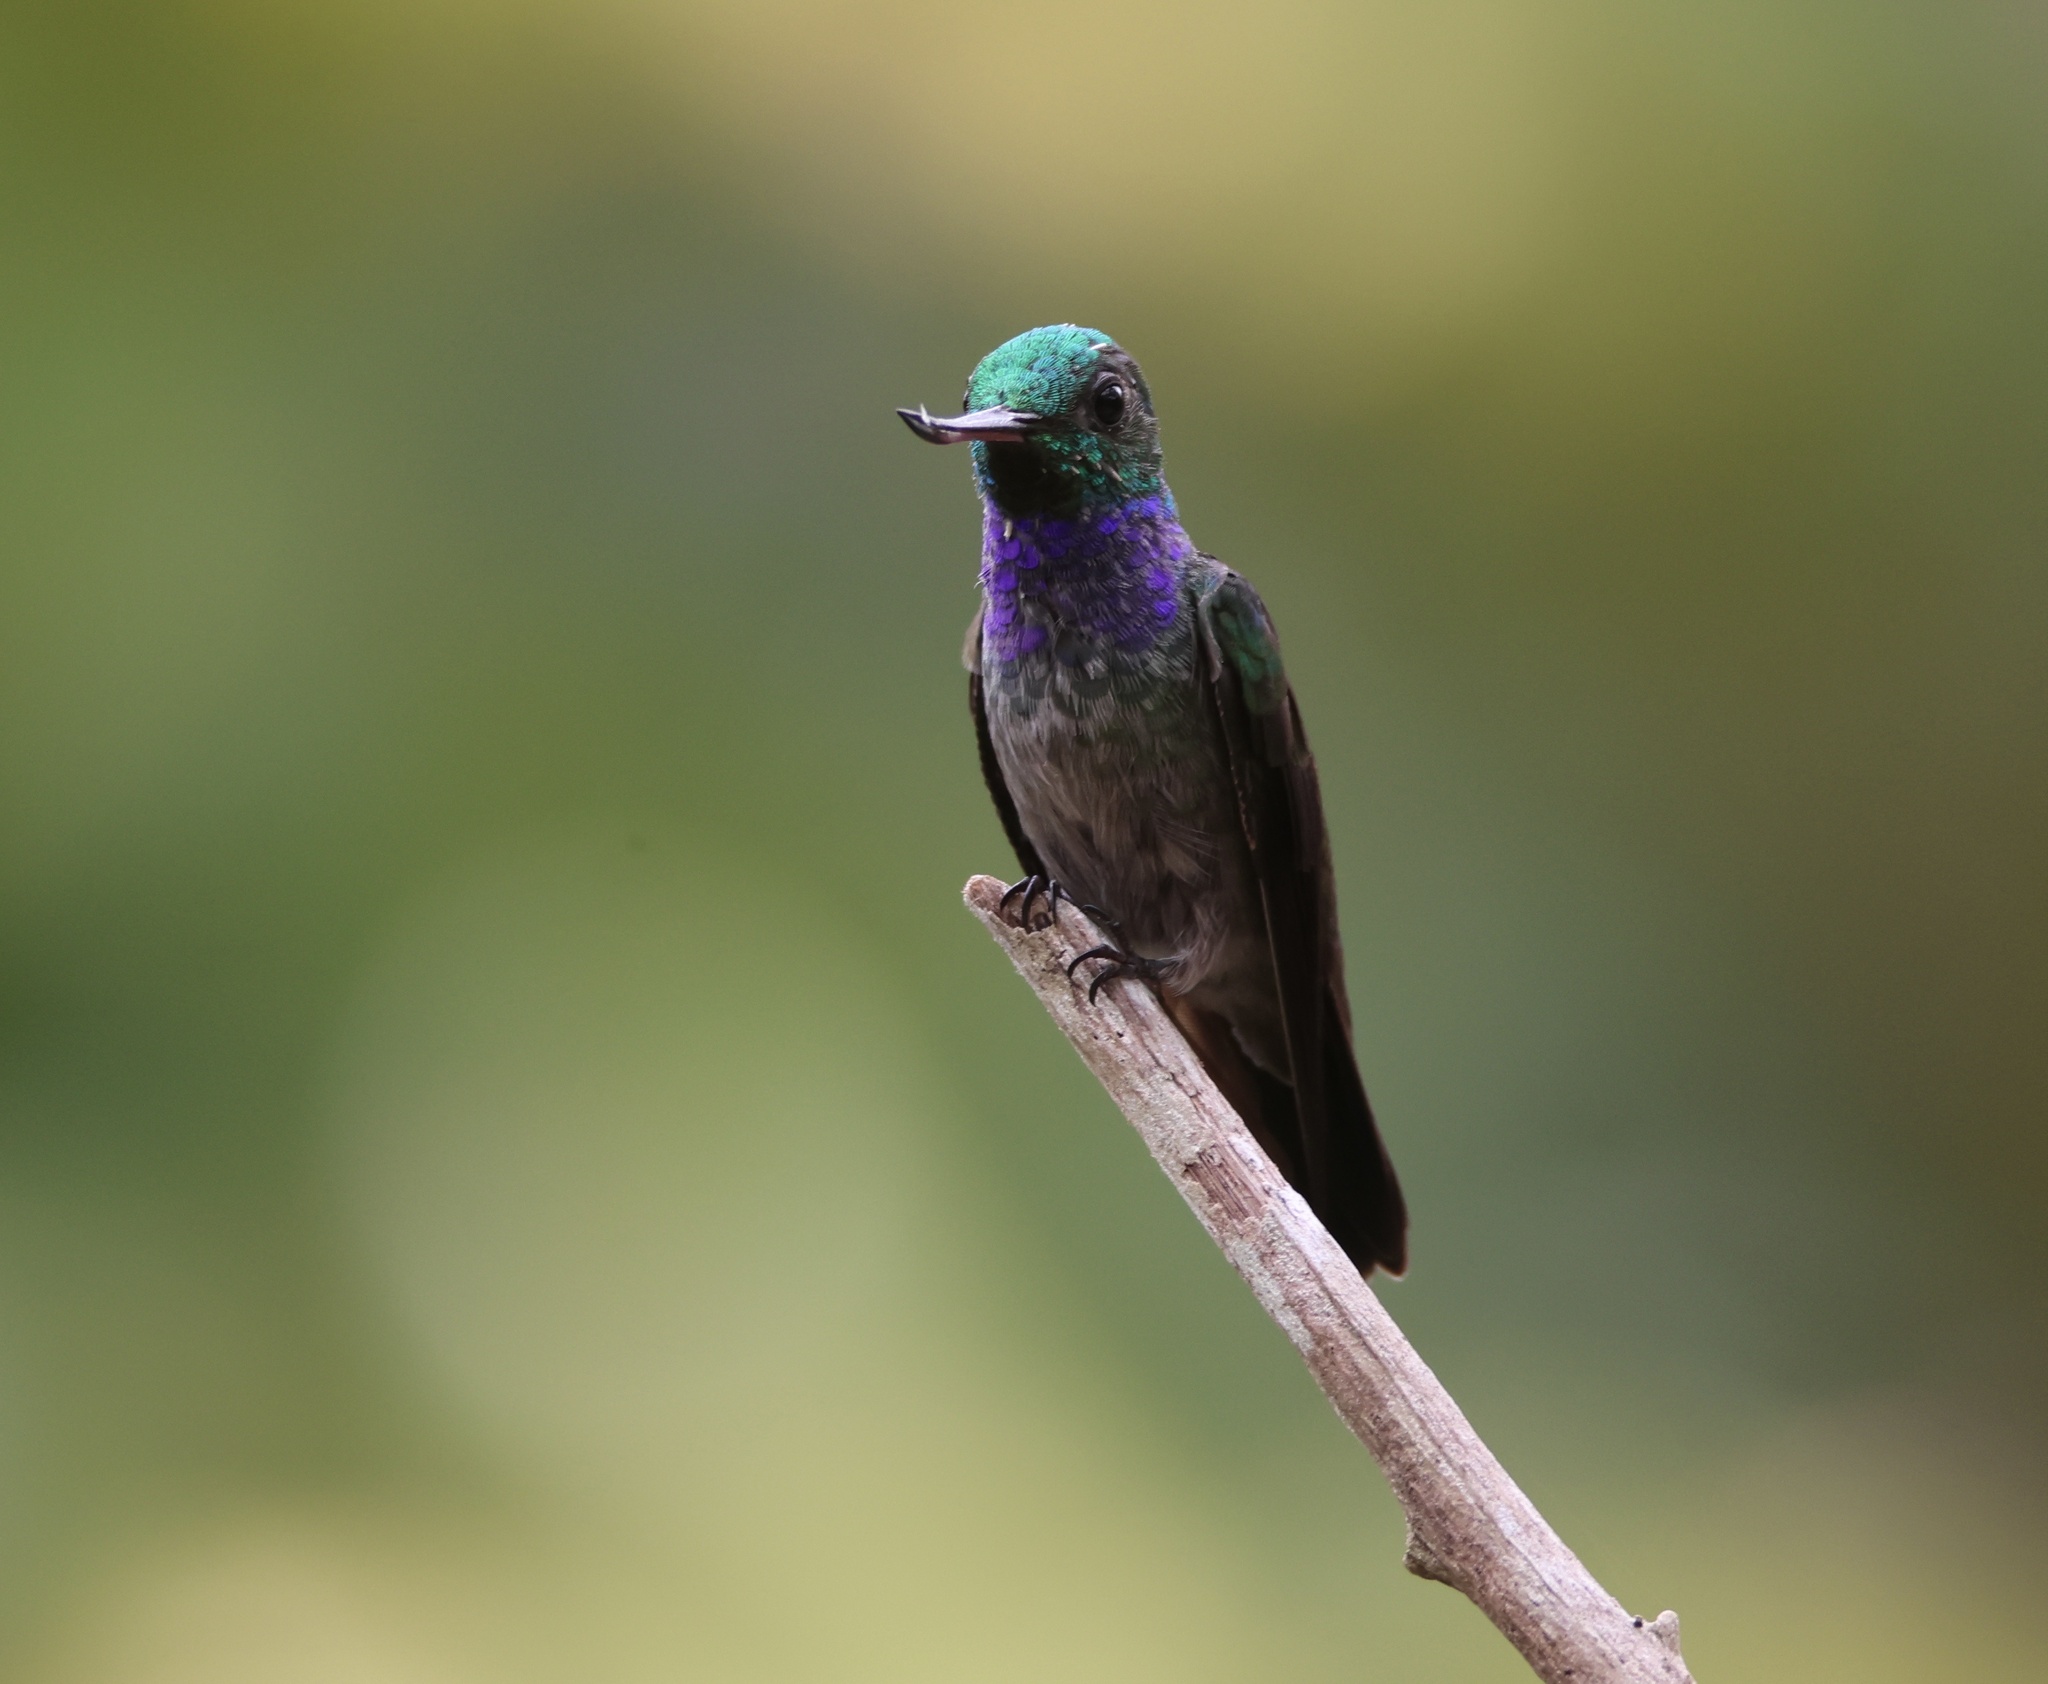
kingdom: Animalia
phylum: Chordata
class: Aves
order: Apodiformes
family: Trochilidae
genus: Chrysuronia
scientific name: Chrysuronia coeruleogularis
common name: Sapphire-throated hummingbird
